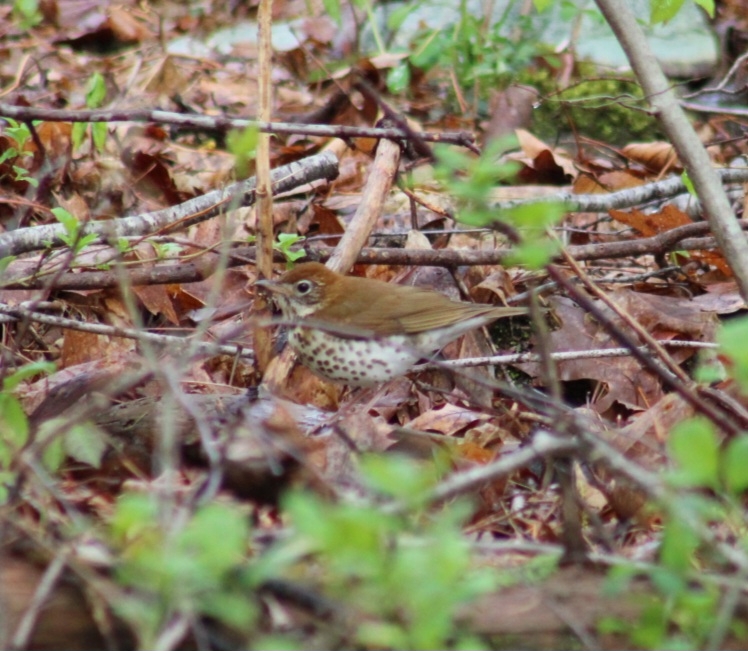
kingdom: Animalia
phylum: Chordata
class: Aves
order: Passeriformes
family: Turdidae
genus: Hylocichla
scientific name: Hylocichla mustelina
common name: Wood thrush
